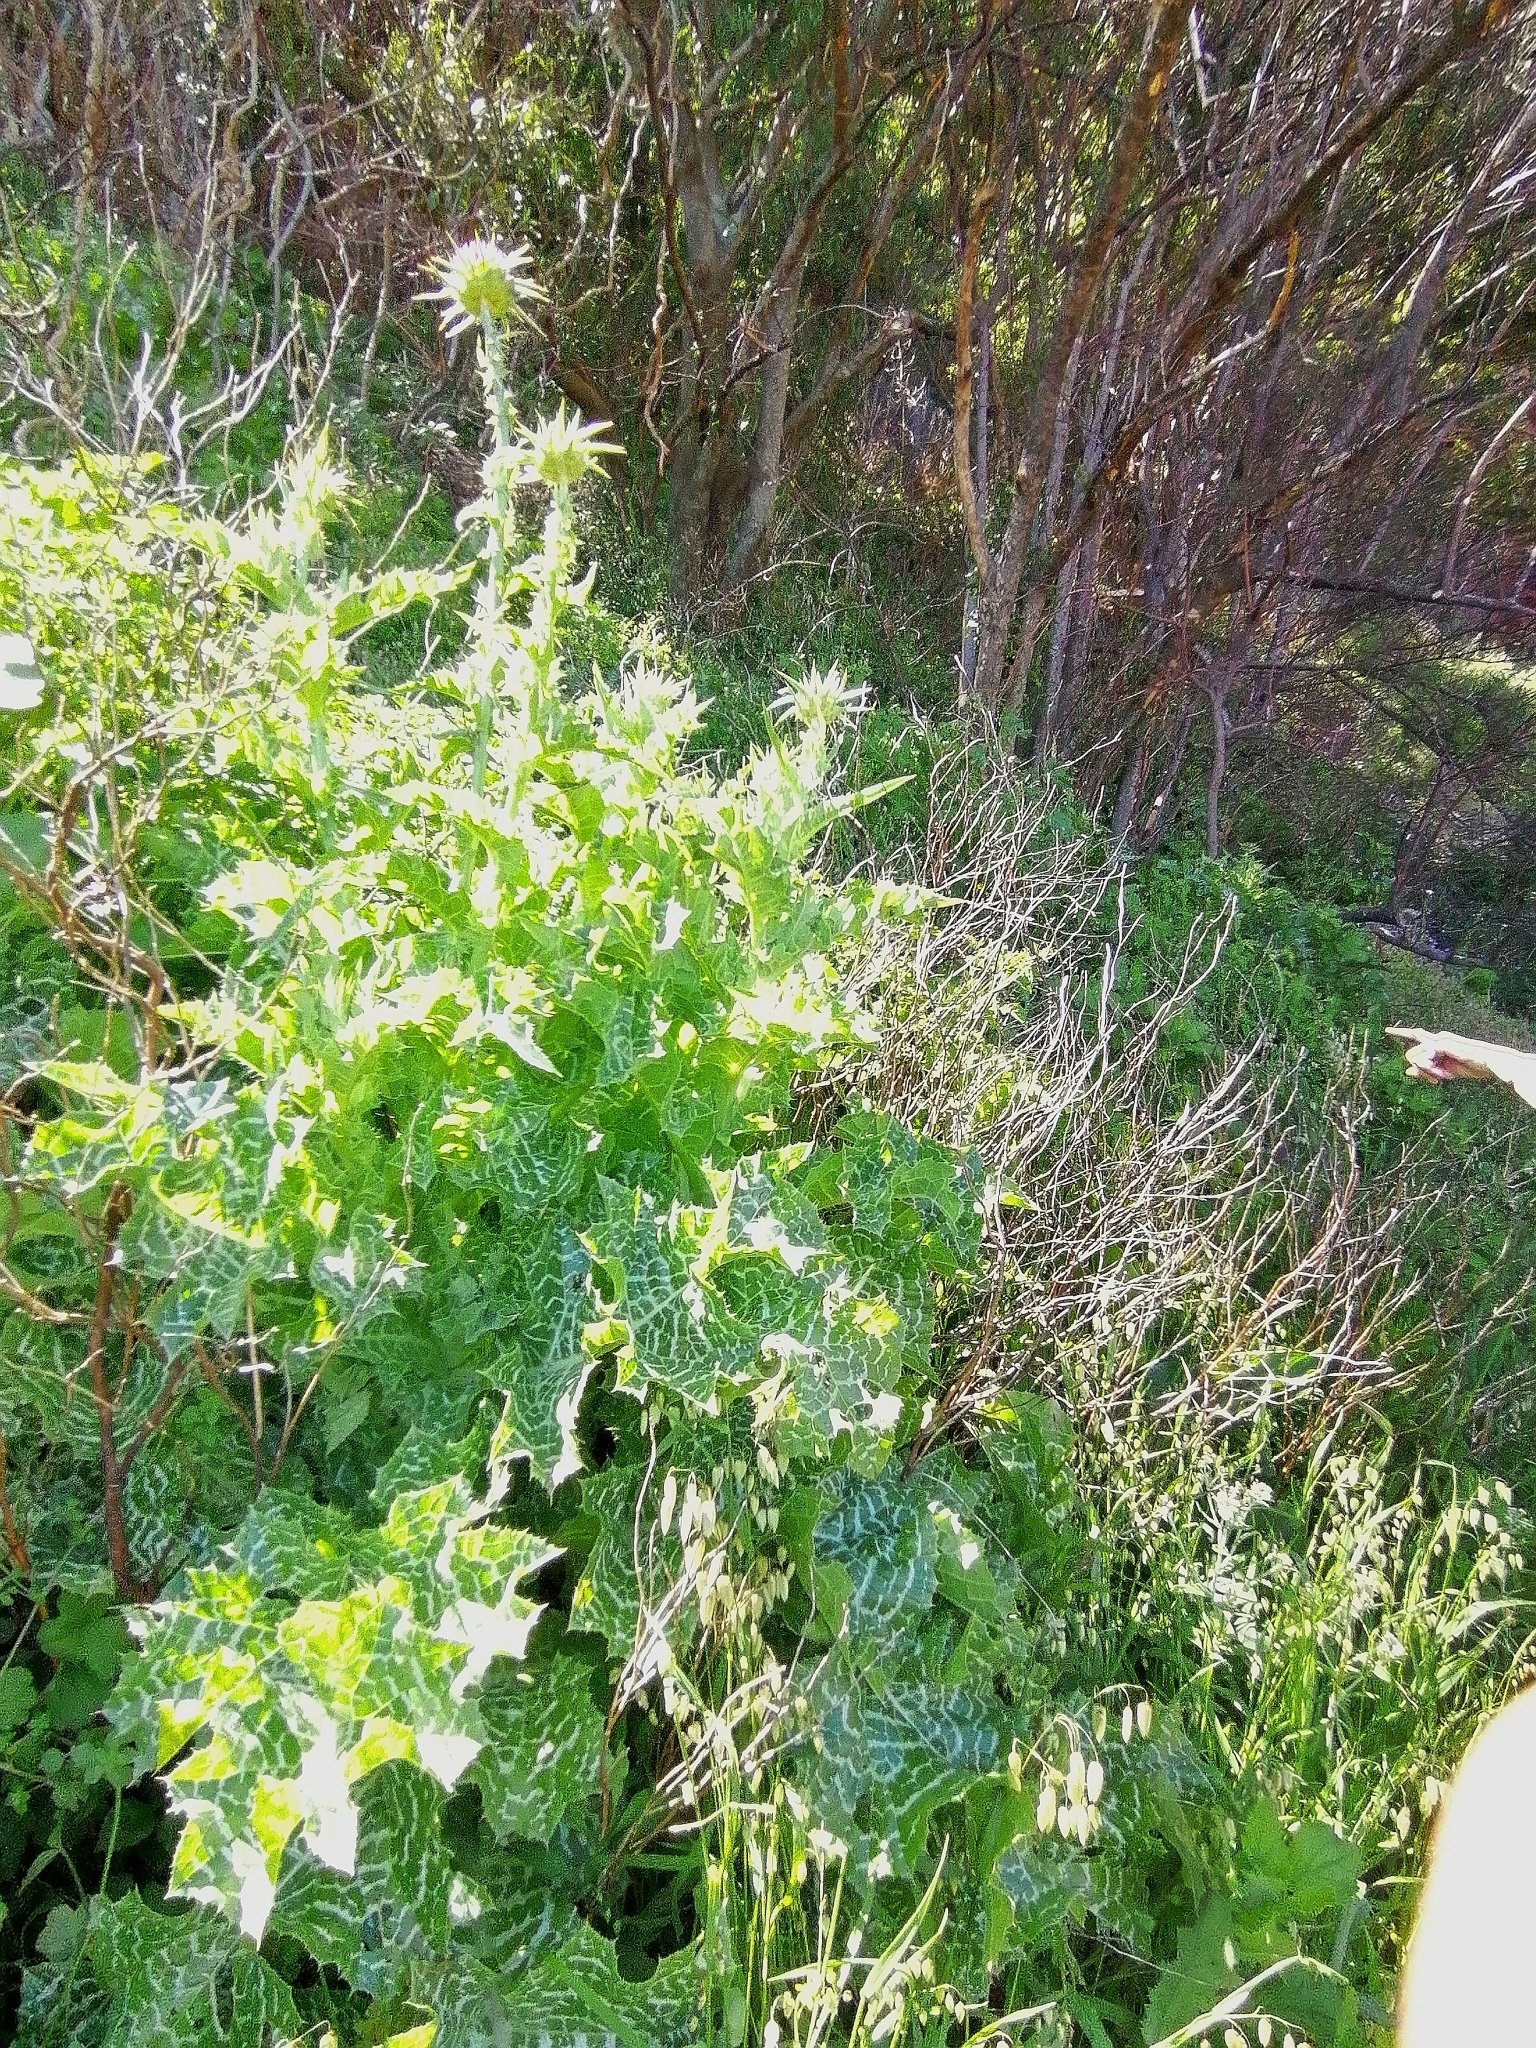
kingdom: Plantae
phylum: Tracheophyta
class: Magnoliopsida
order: Asterales
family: Asteraceae
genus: Silybum
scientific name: Silybum marianum
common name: Milk thistle
